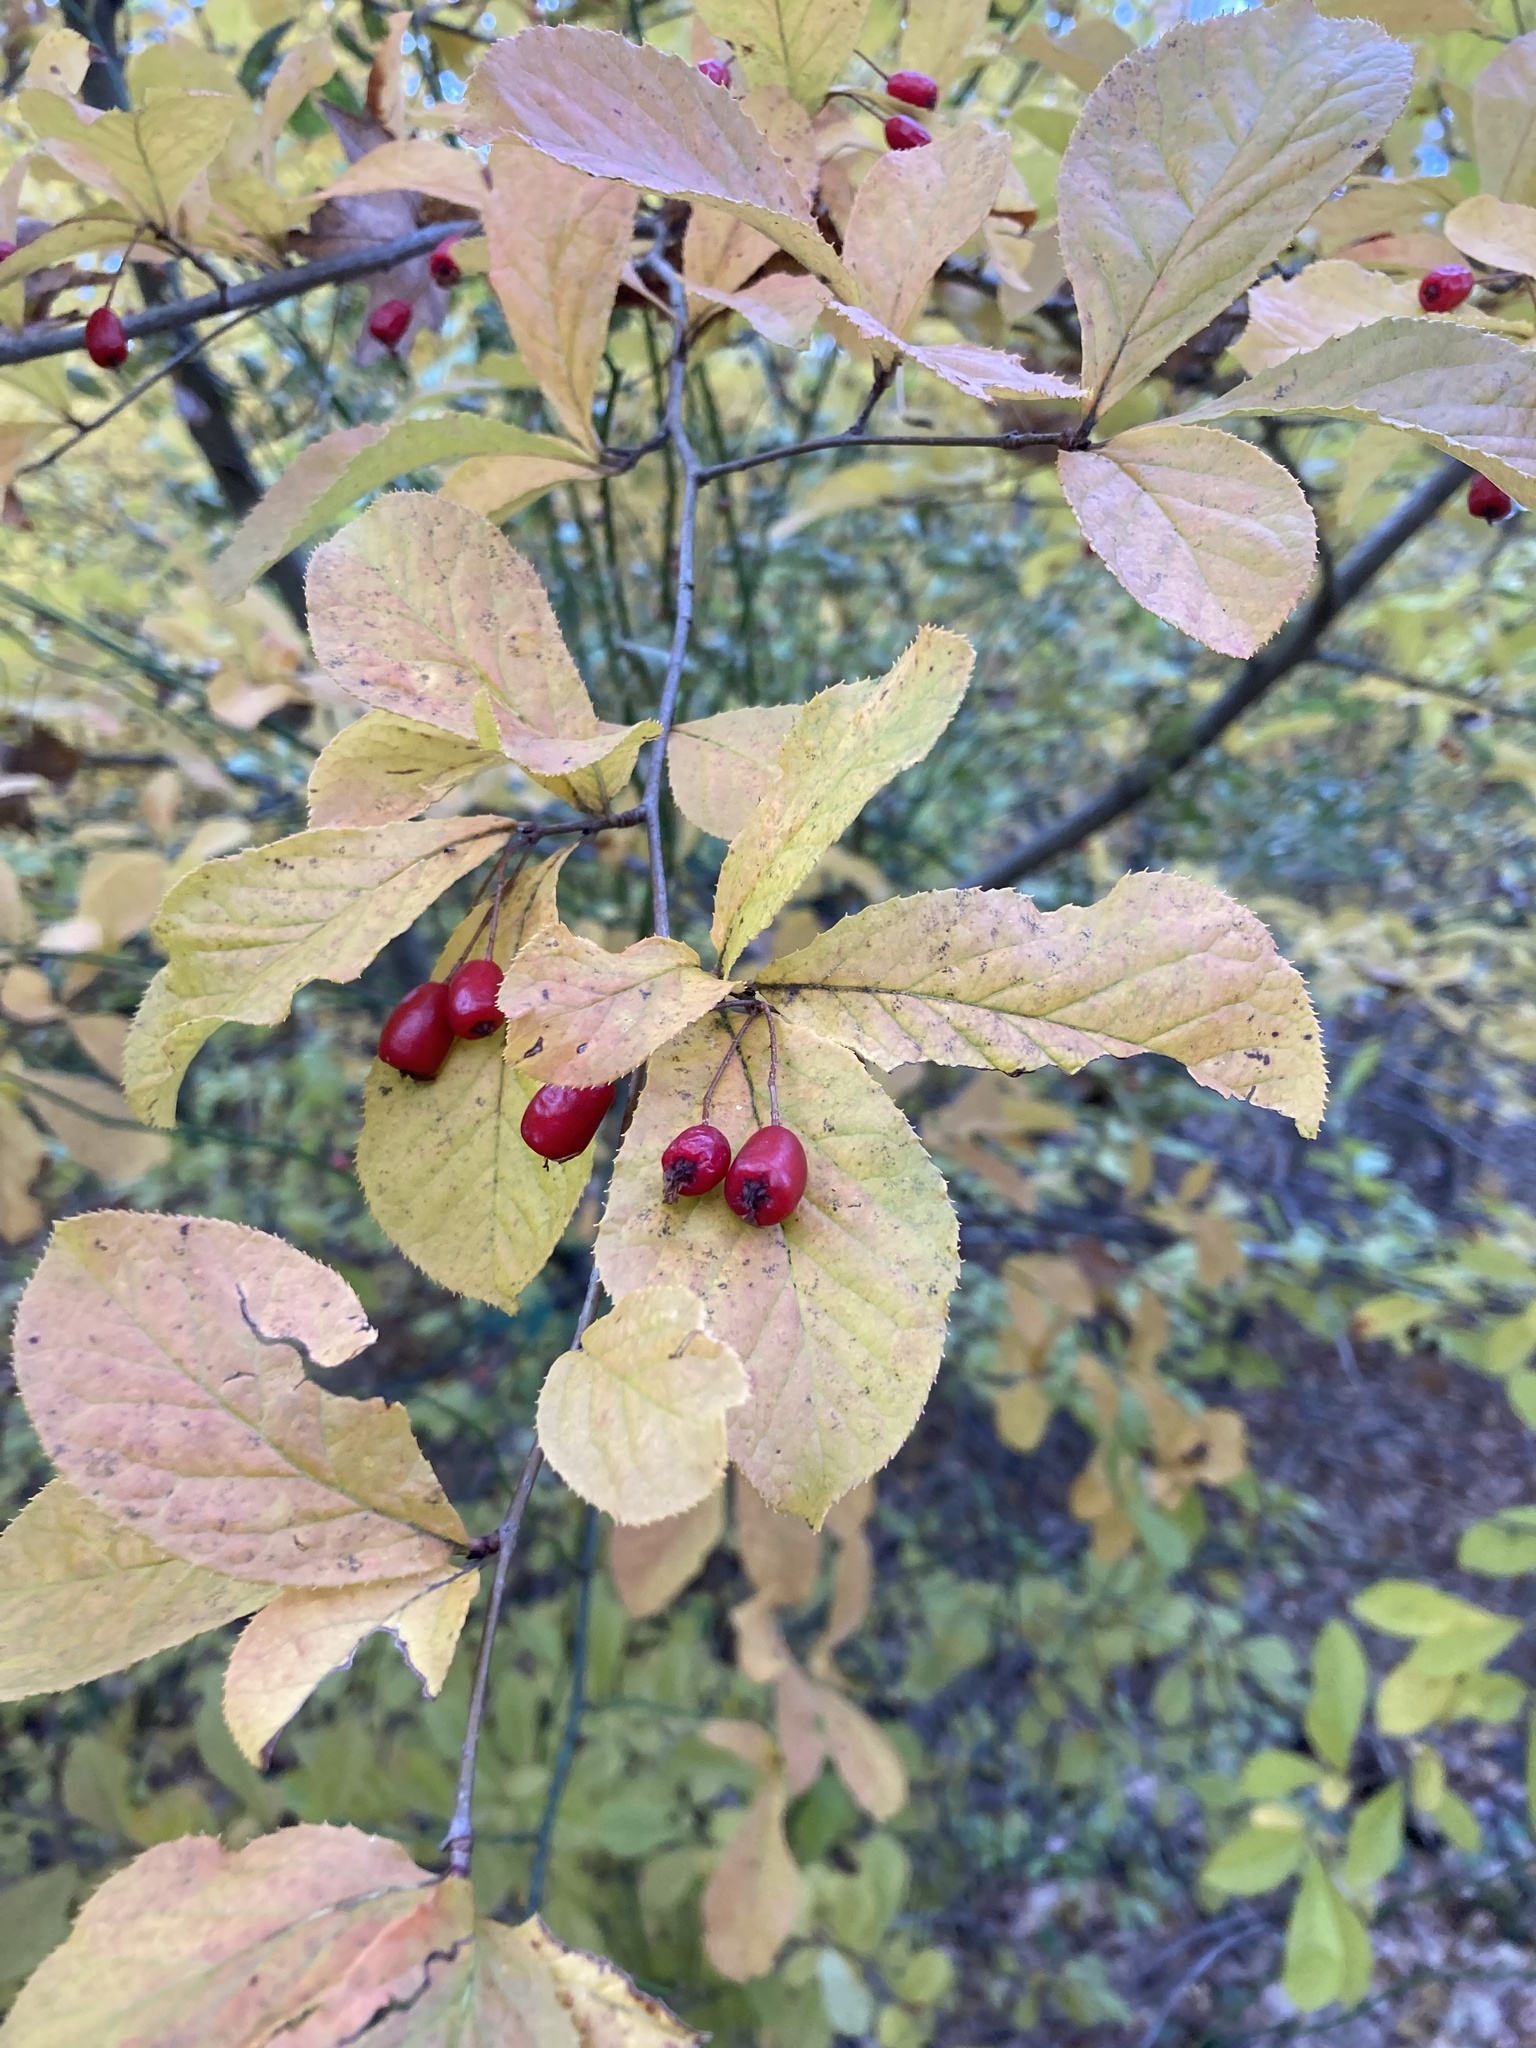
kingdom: Plantae
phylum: Tracheophyta
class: Magnoliopsida
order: Rosales
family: Rosaceae
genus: Pourthiaea
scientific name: Pourthiaea villosa
